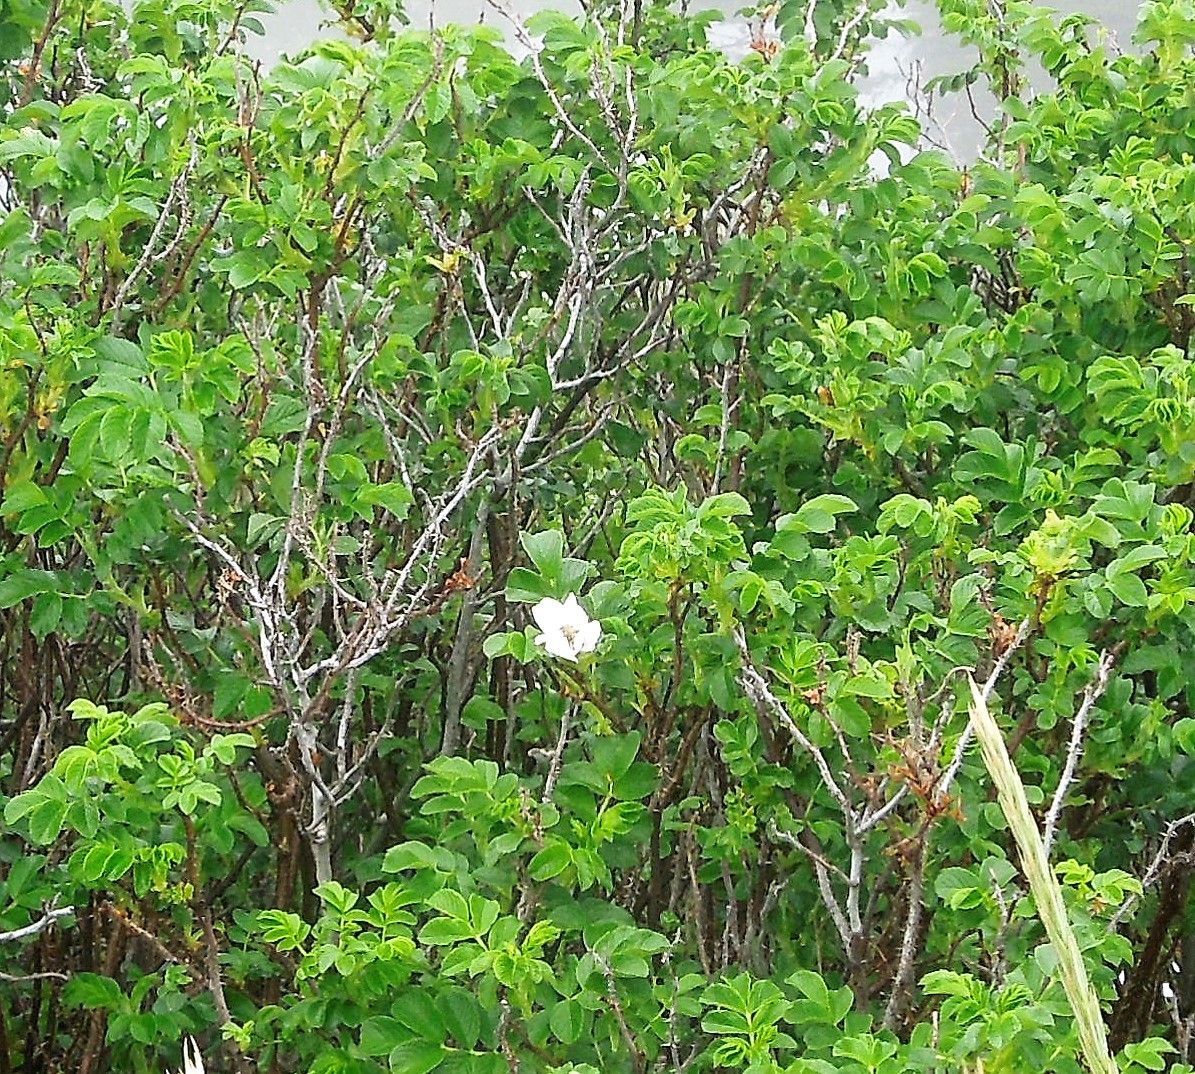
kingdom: Plantae
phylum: Tracheophyta
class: Magnoliopsida
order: Rosales
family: Rosaceae
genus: Rosa
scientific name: Rosa rugosa
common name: Japanese rose
